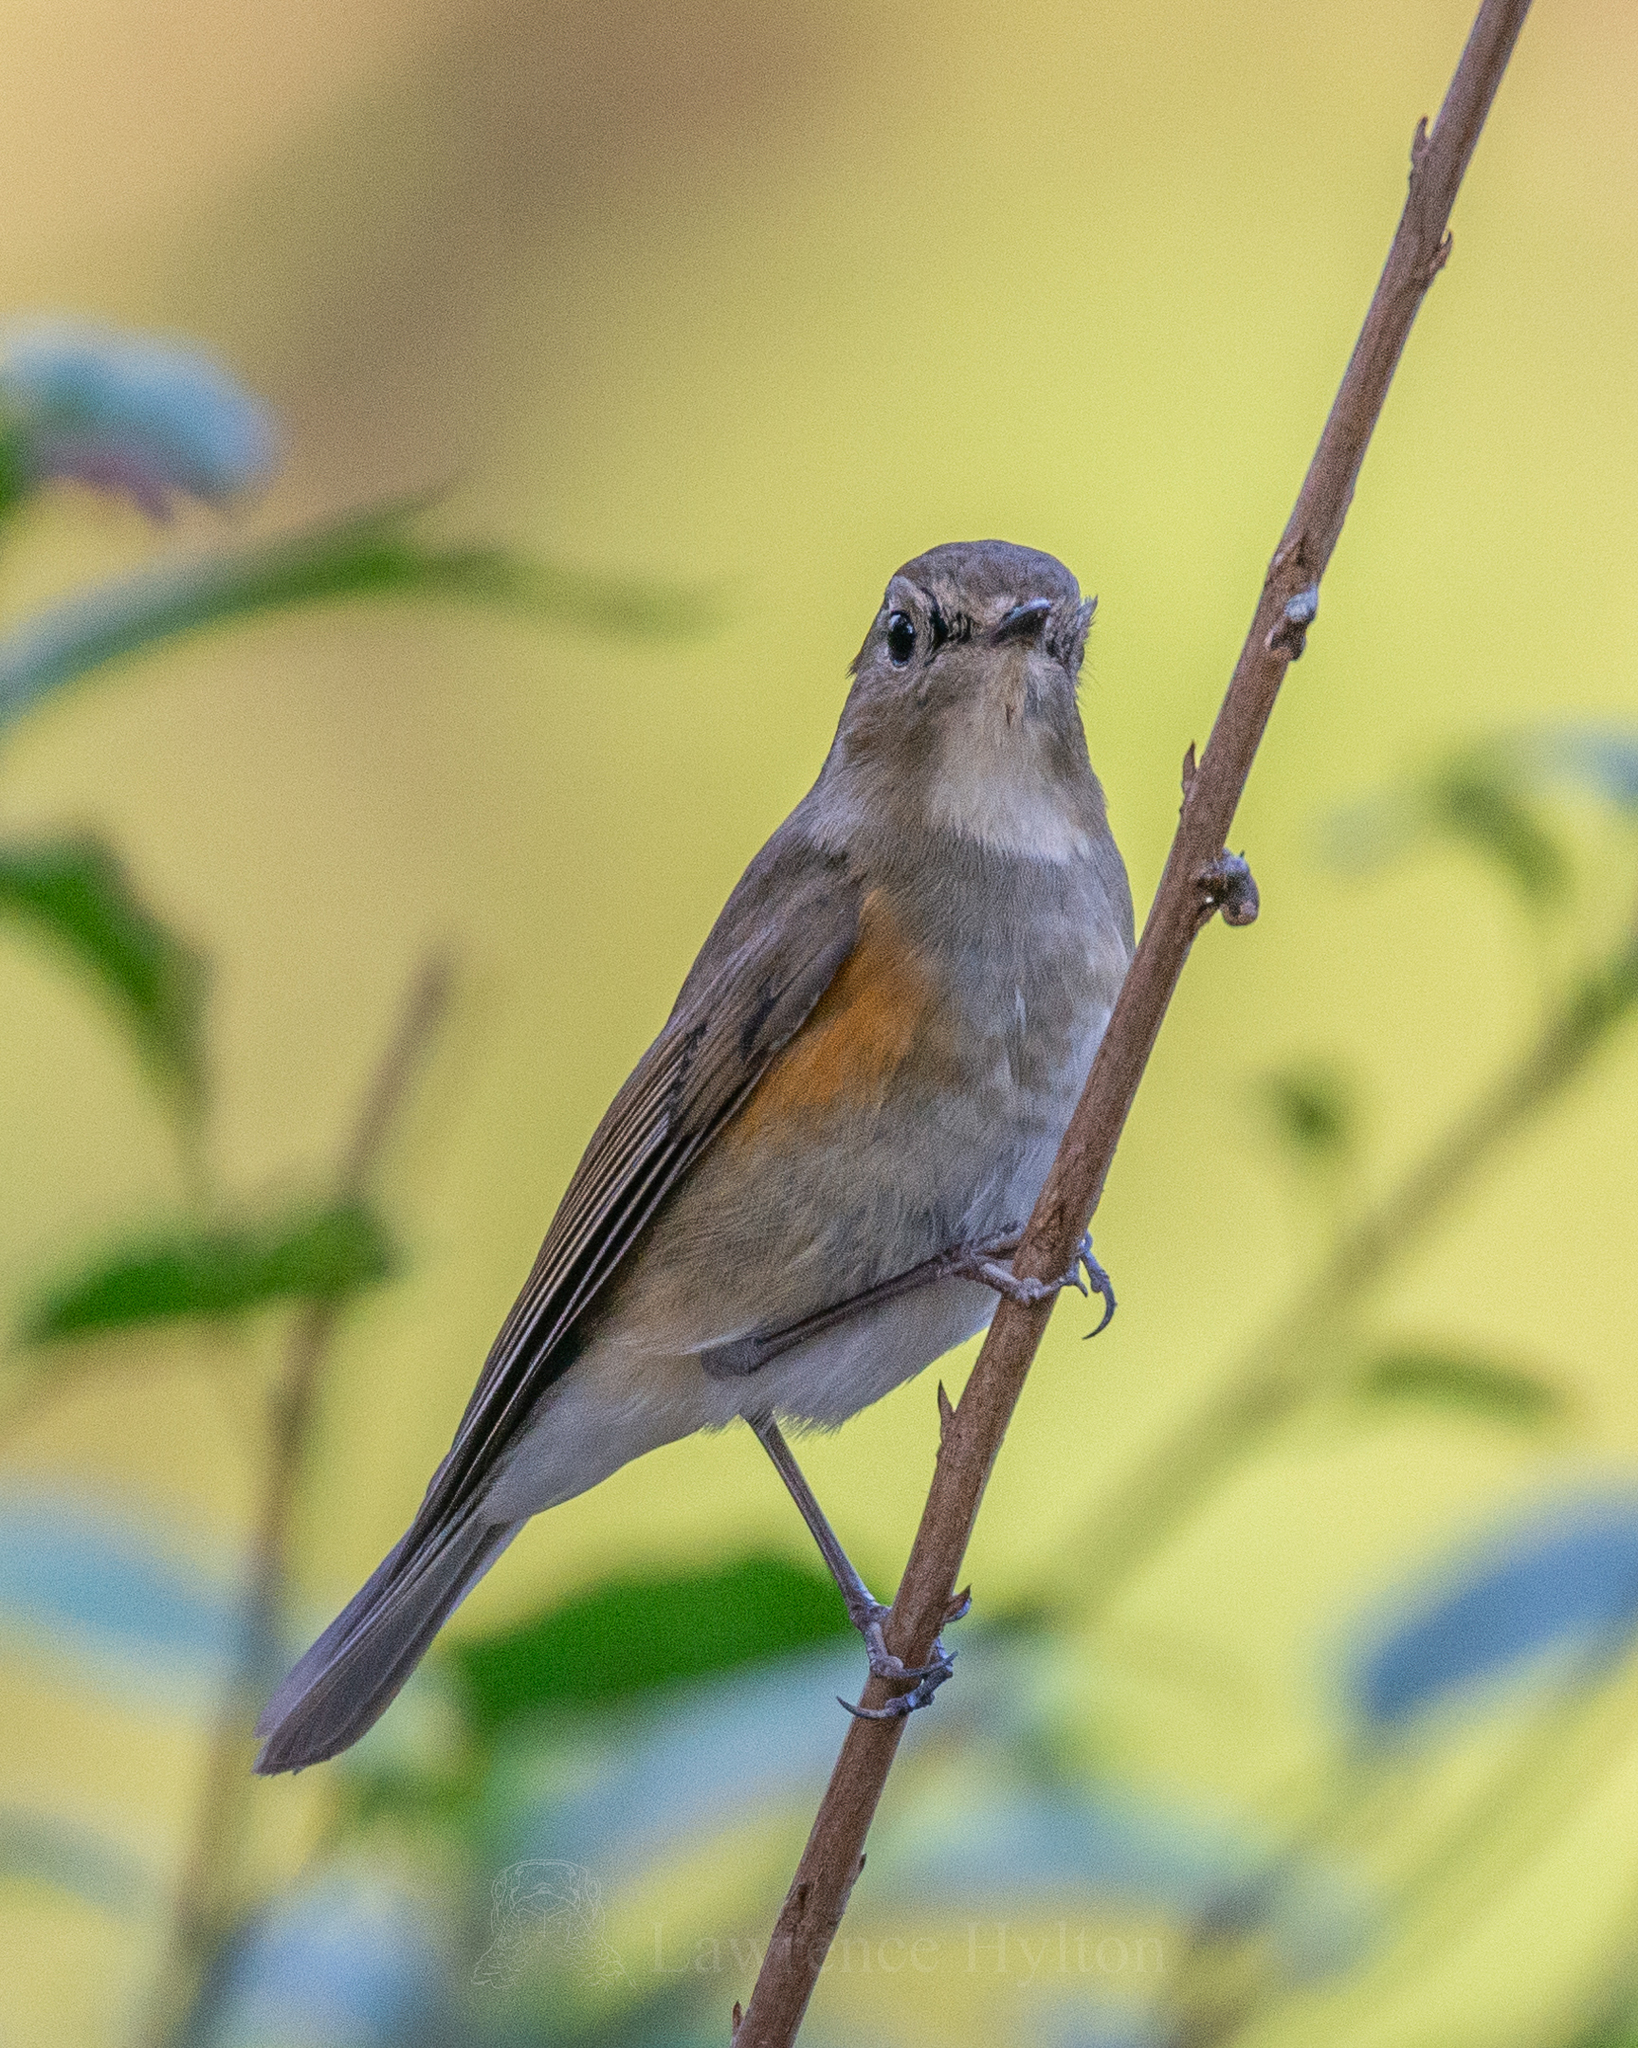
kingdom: Animalia
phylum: Chordata
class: Aves
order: Passeriformes
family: Muscicapidae
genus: Tarsiger
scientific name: Tarsiger cyanurus
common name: Red-flanked bluetail
